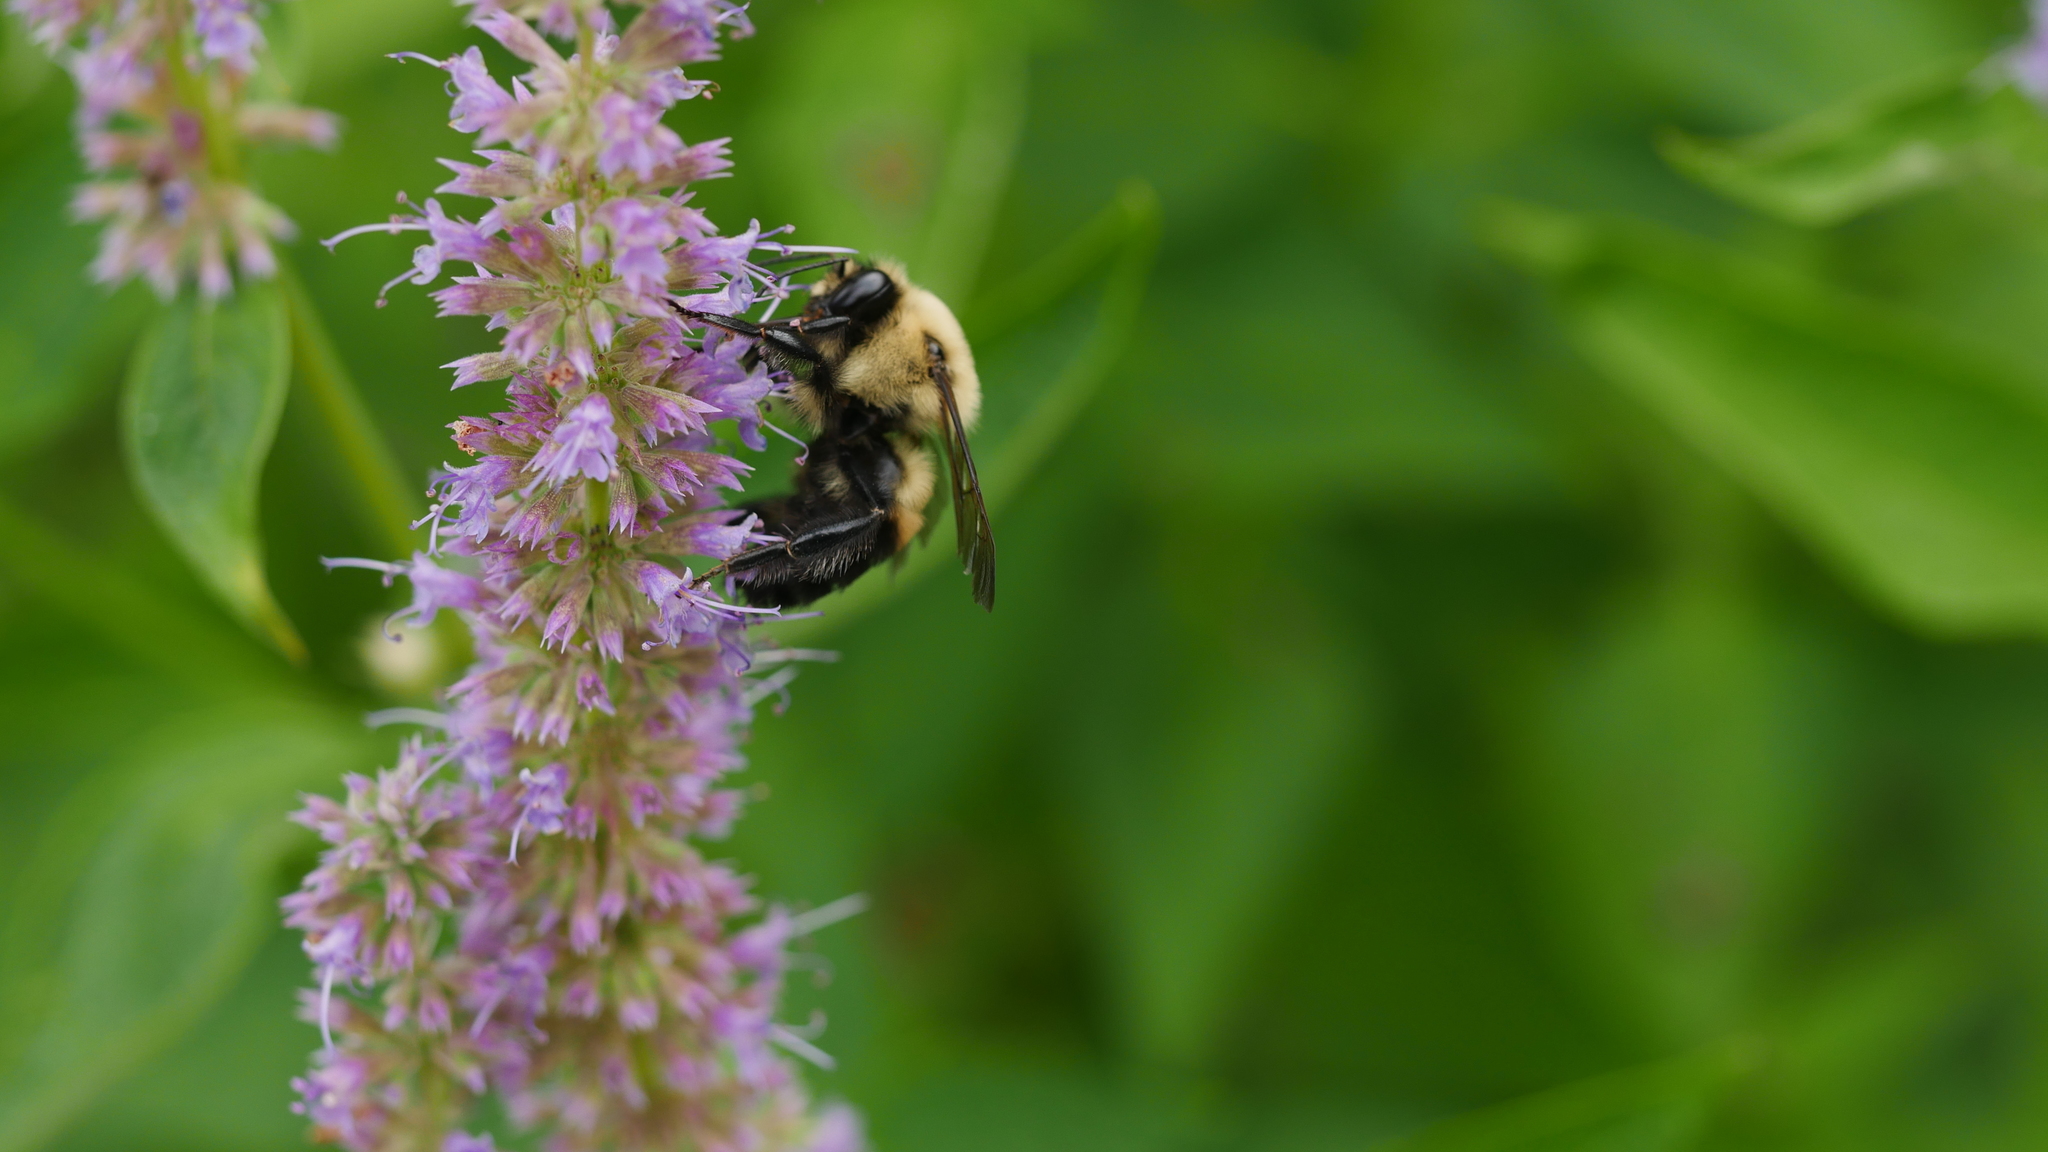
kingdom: Animalia
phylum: Arthropoda
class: Insecta
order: Hymenoptera
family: Apidae
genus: Bombus
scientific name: Bombus griseocollis
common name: Brown-belted bumble bee
